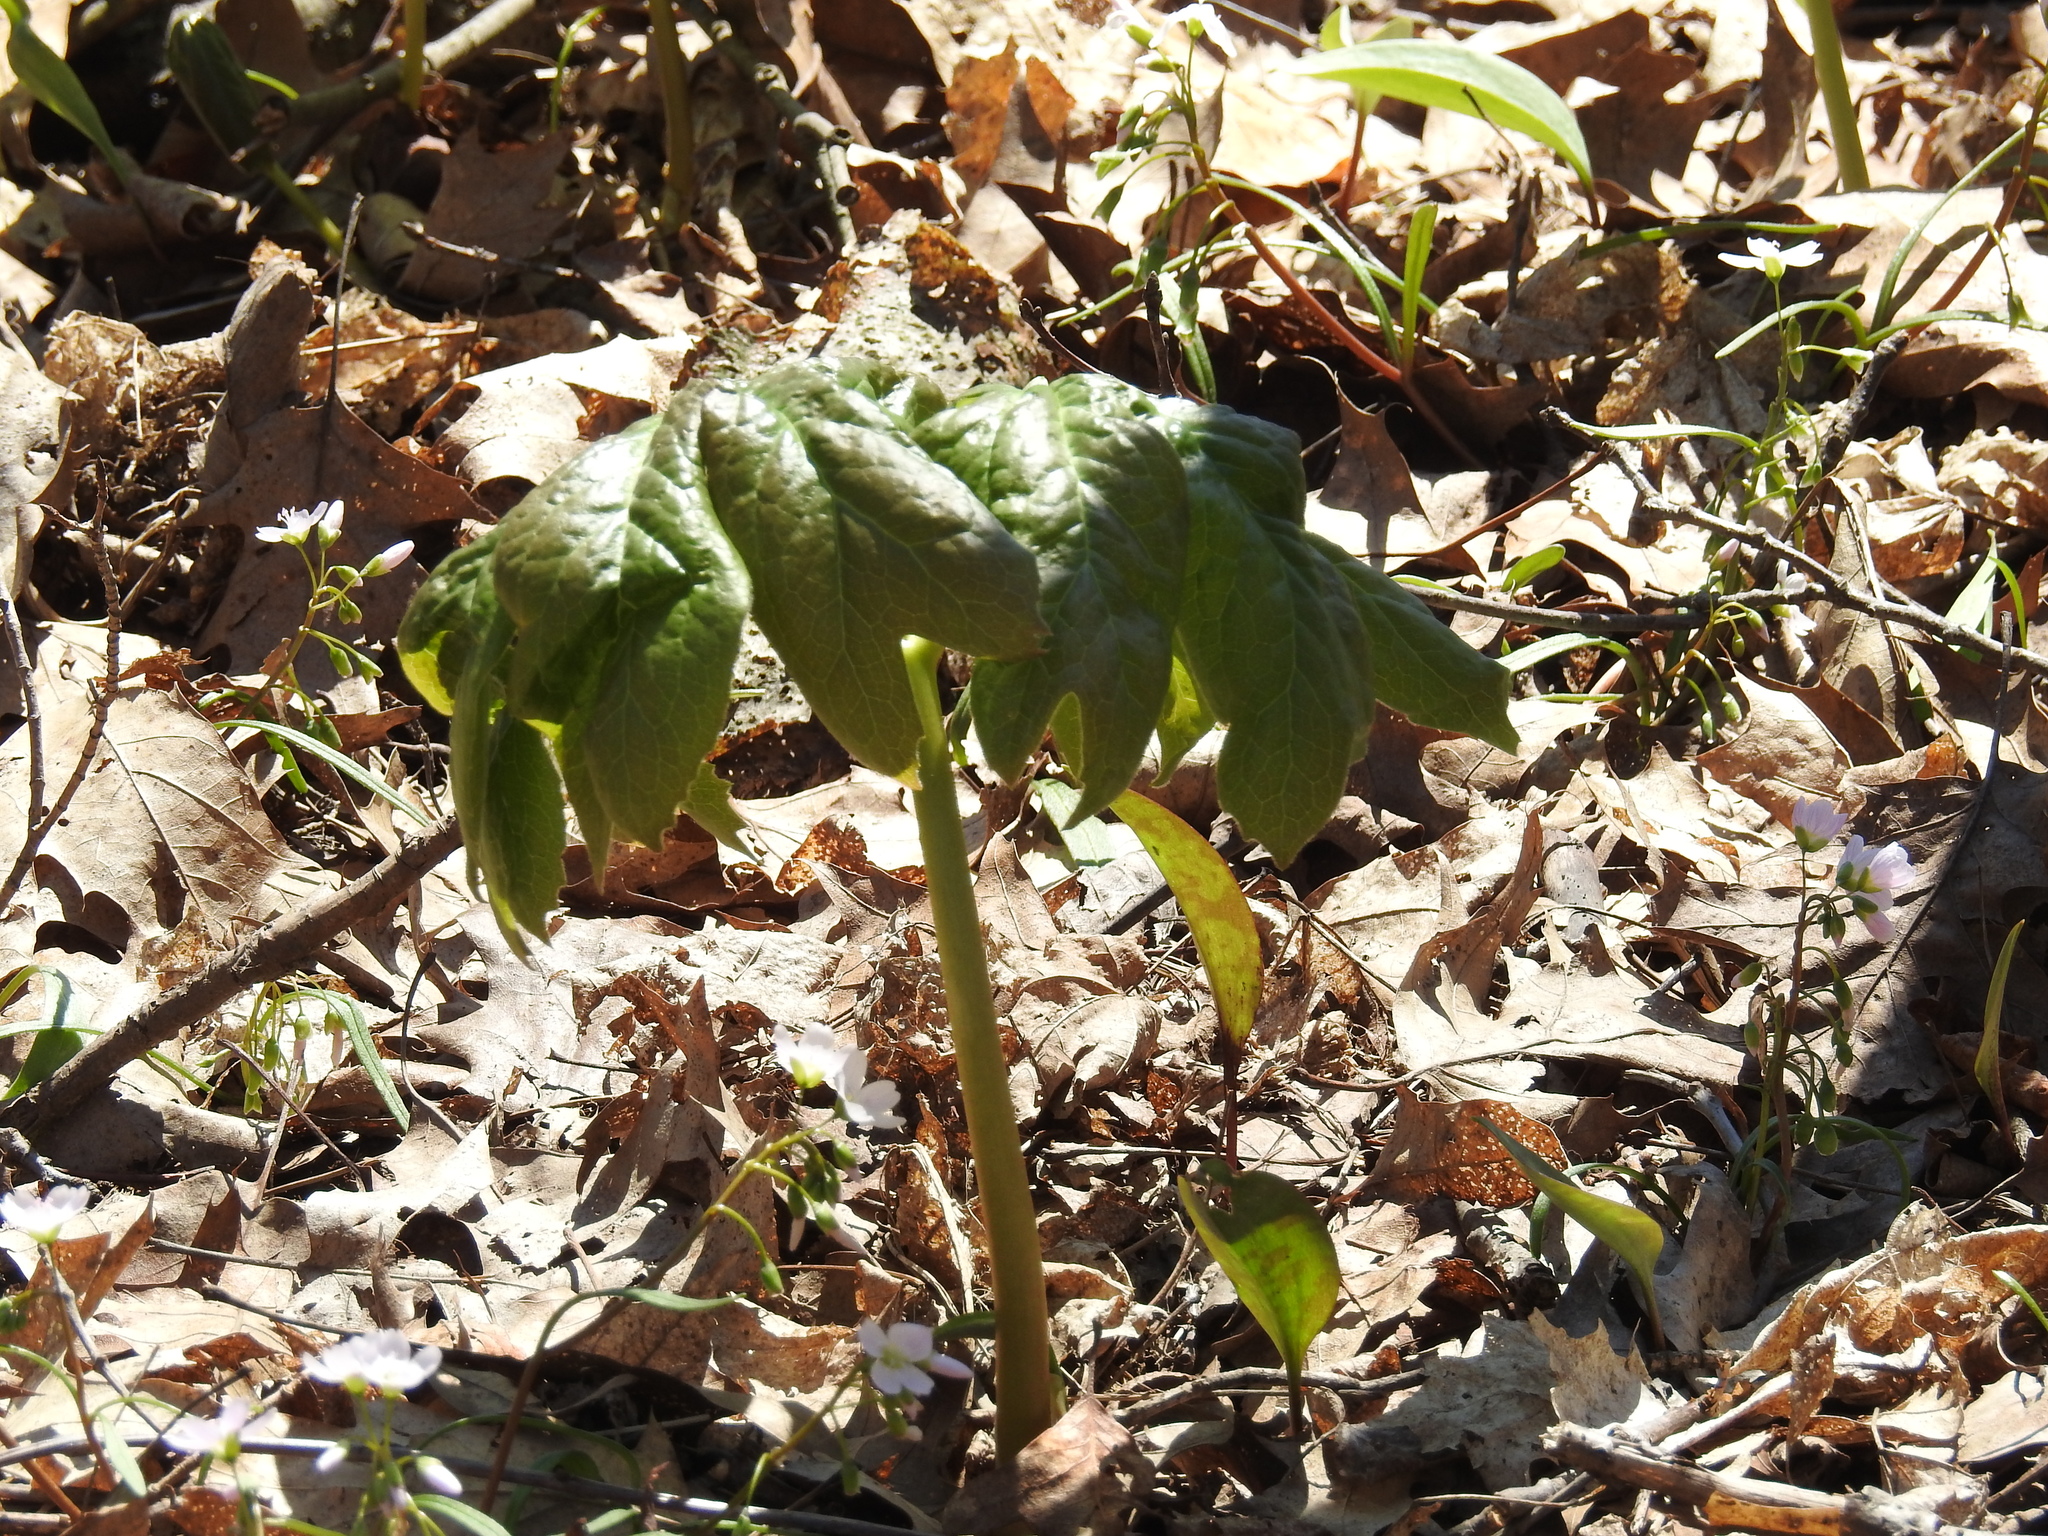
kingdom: Plantae
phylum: Tracheophyta
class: Magnoliopsida
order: Ranunculales
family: Berberidaceae
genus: Podophyllum
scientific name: Podophyllum peltatum
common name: Wild mandrake
